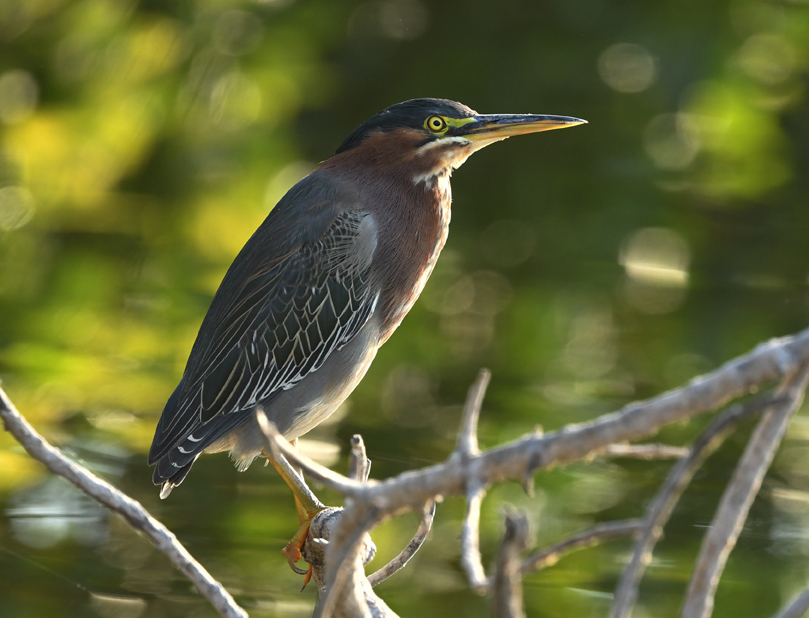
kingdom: Animalia
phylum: Chordata
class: Aves
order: Pelecaniformes
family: Ardeidae
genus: Butorides
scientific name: Butorides virescens
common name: Green heron
